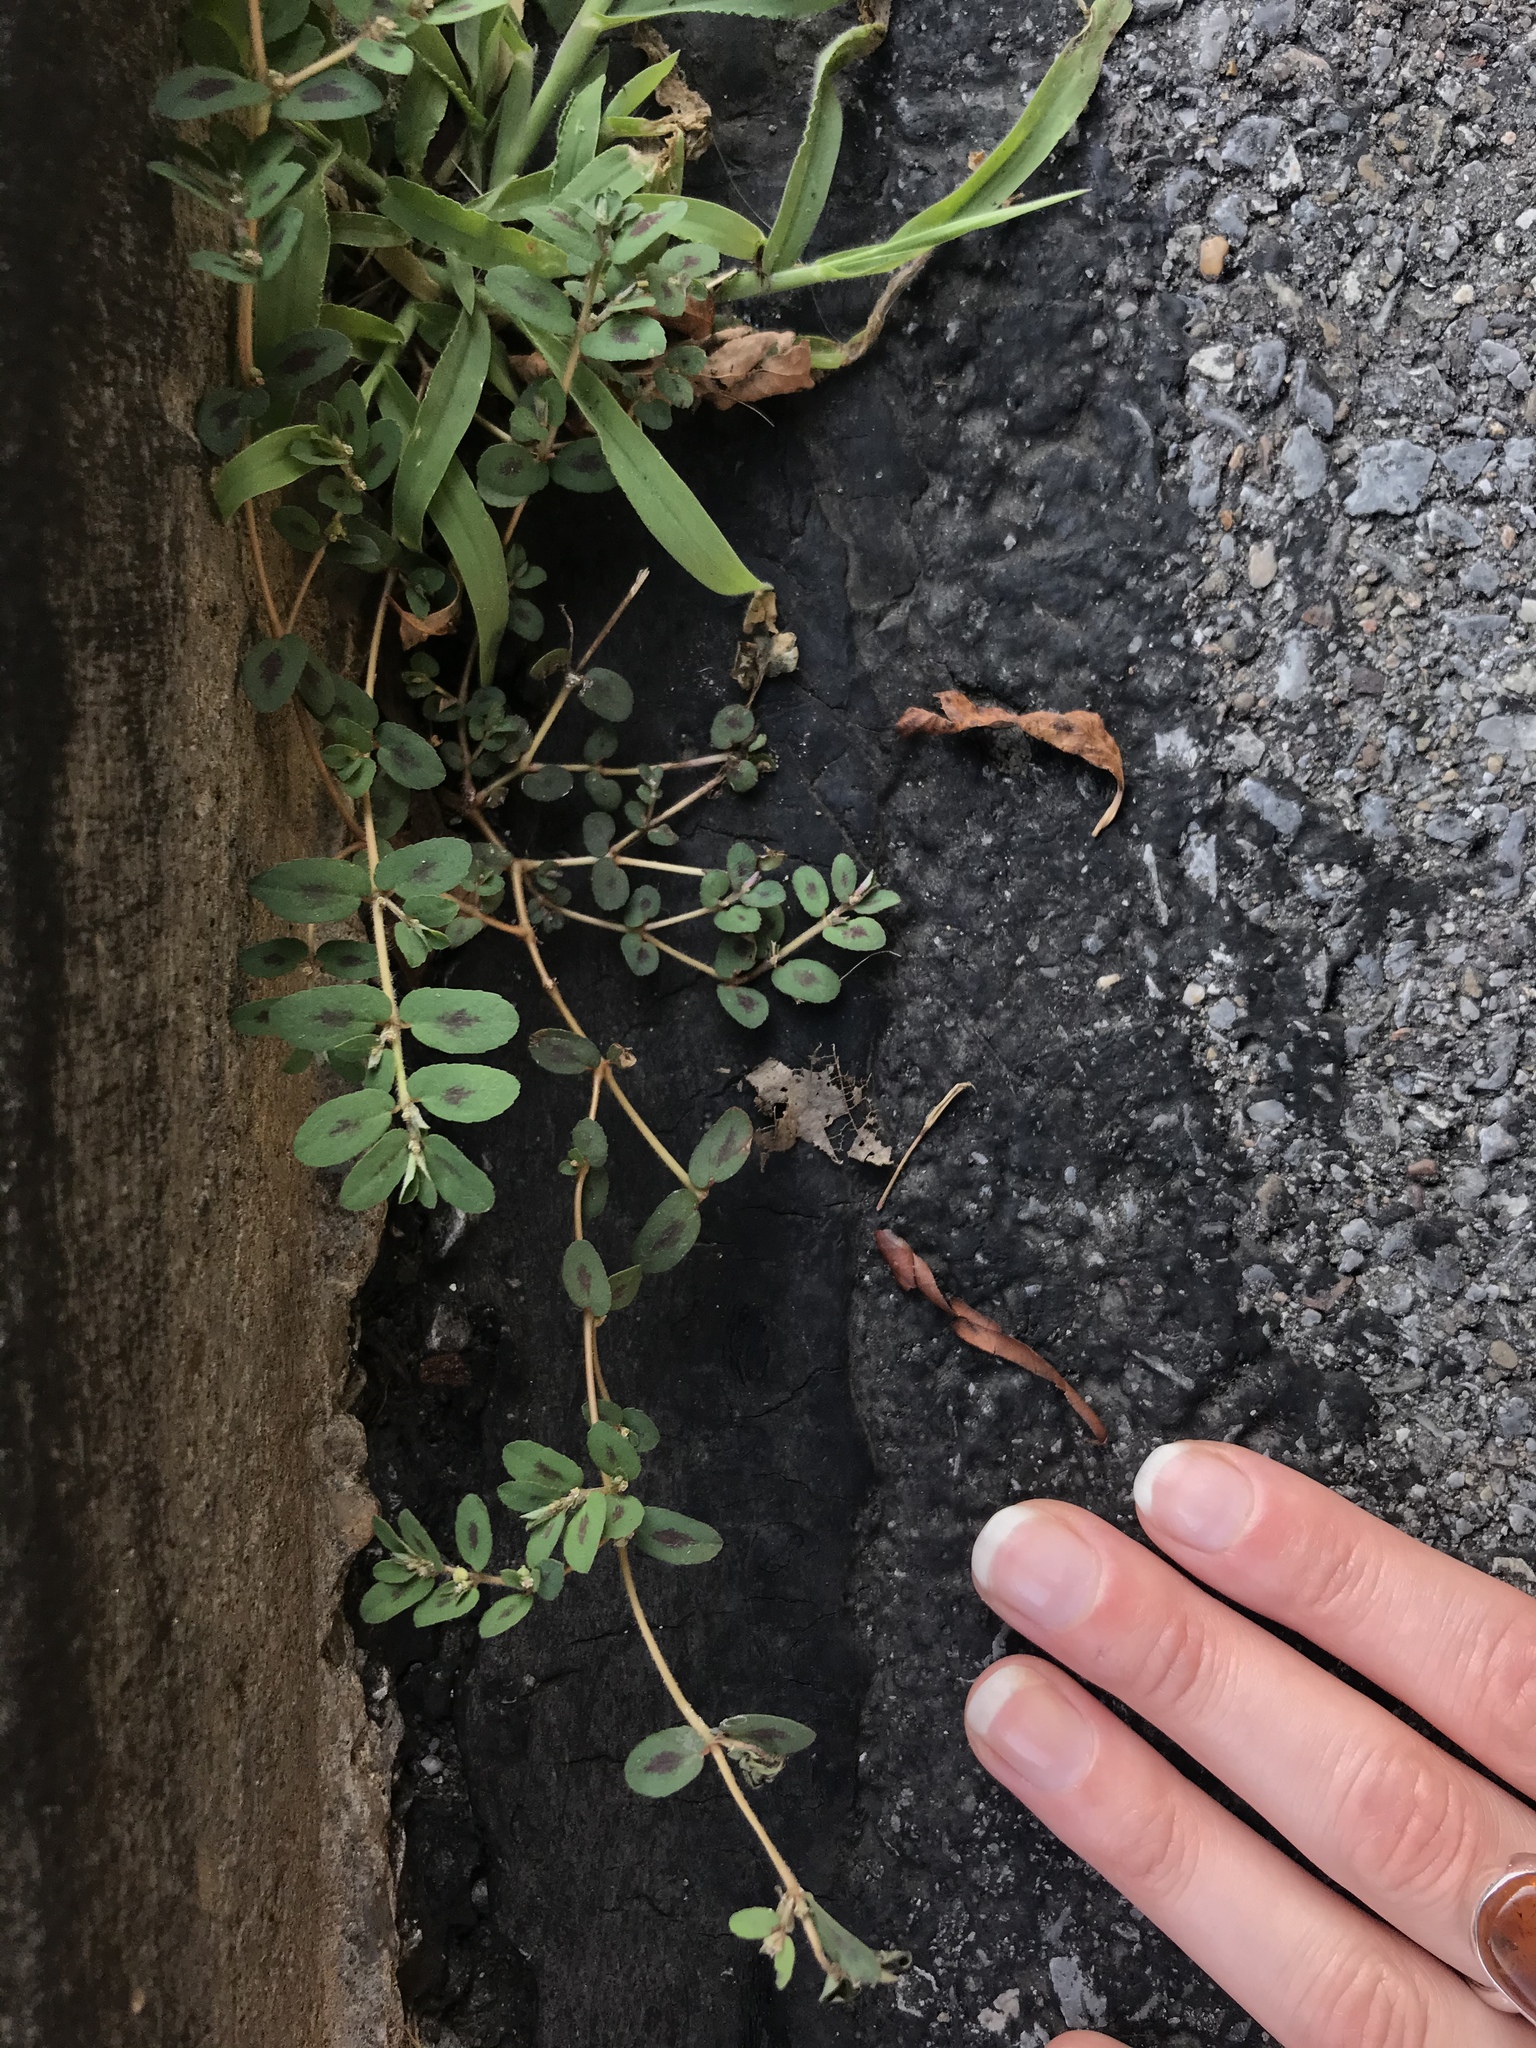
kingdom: Plantae
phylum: Tracheophyta
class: Magnoliopsida
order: Malpighiales
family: Euphorbiaceae
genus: Euphorbia
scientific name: Euphorbia maculata
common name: Spotted spurge
